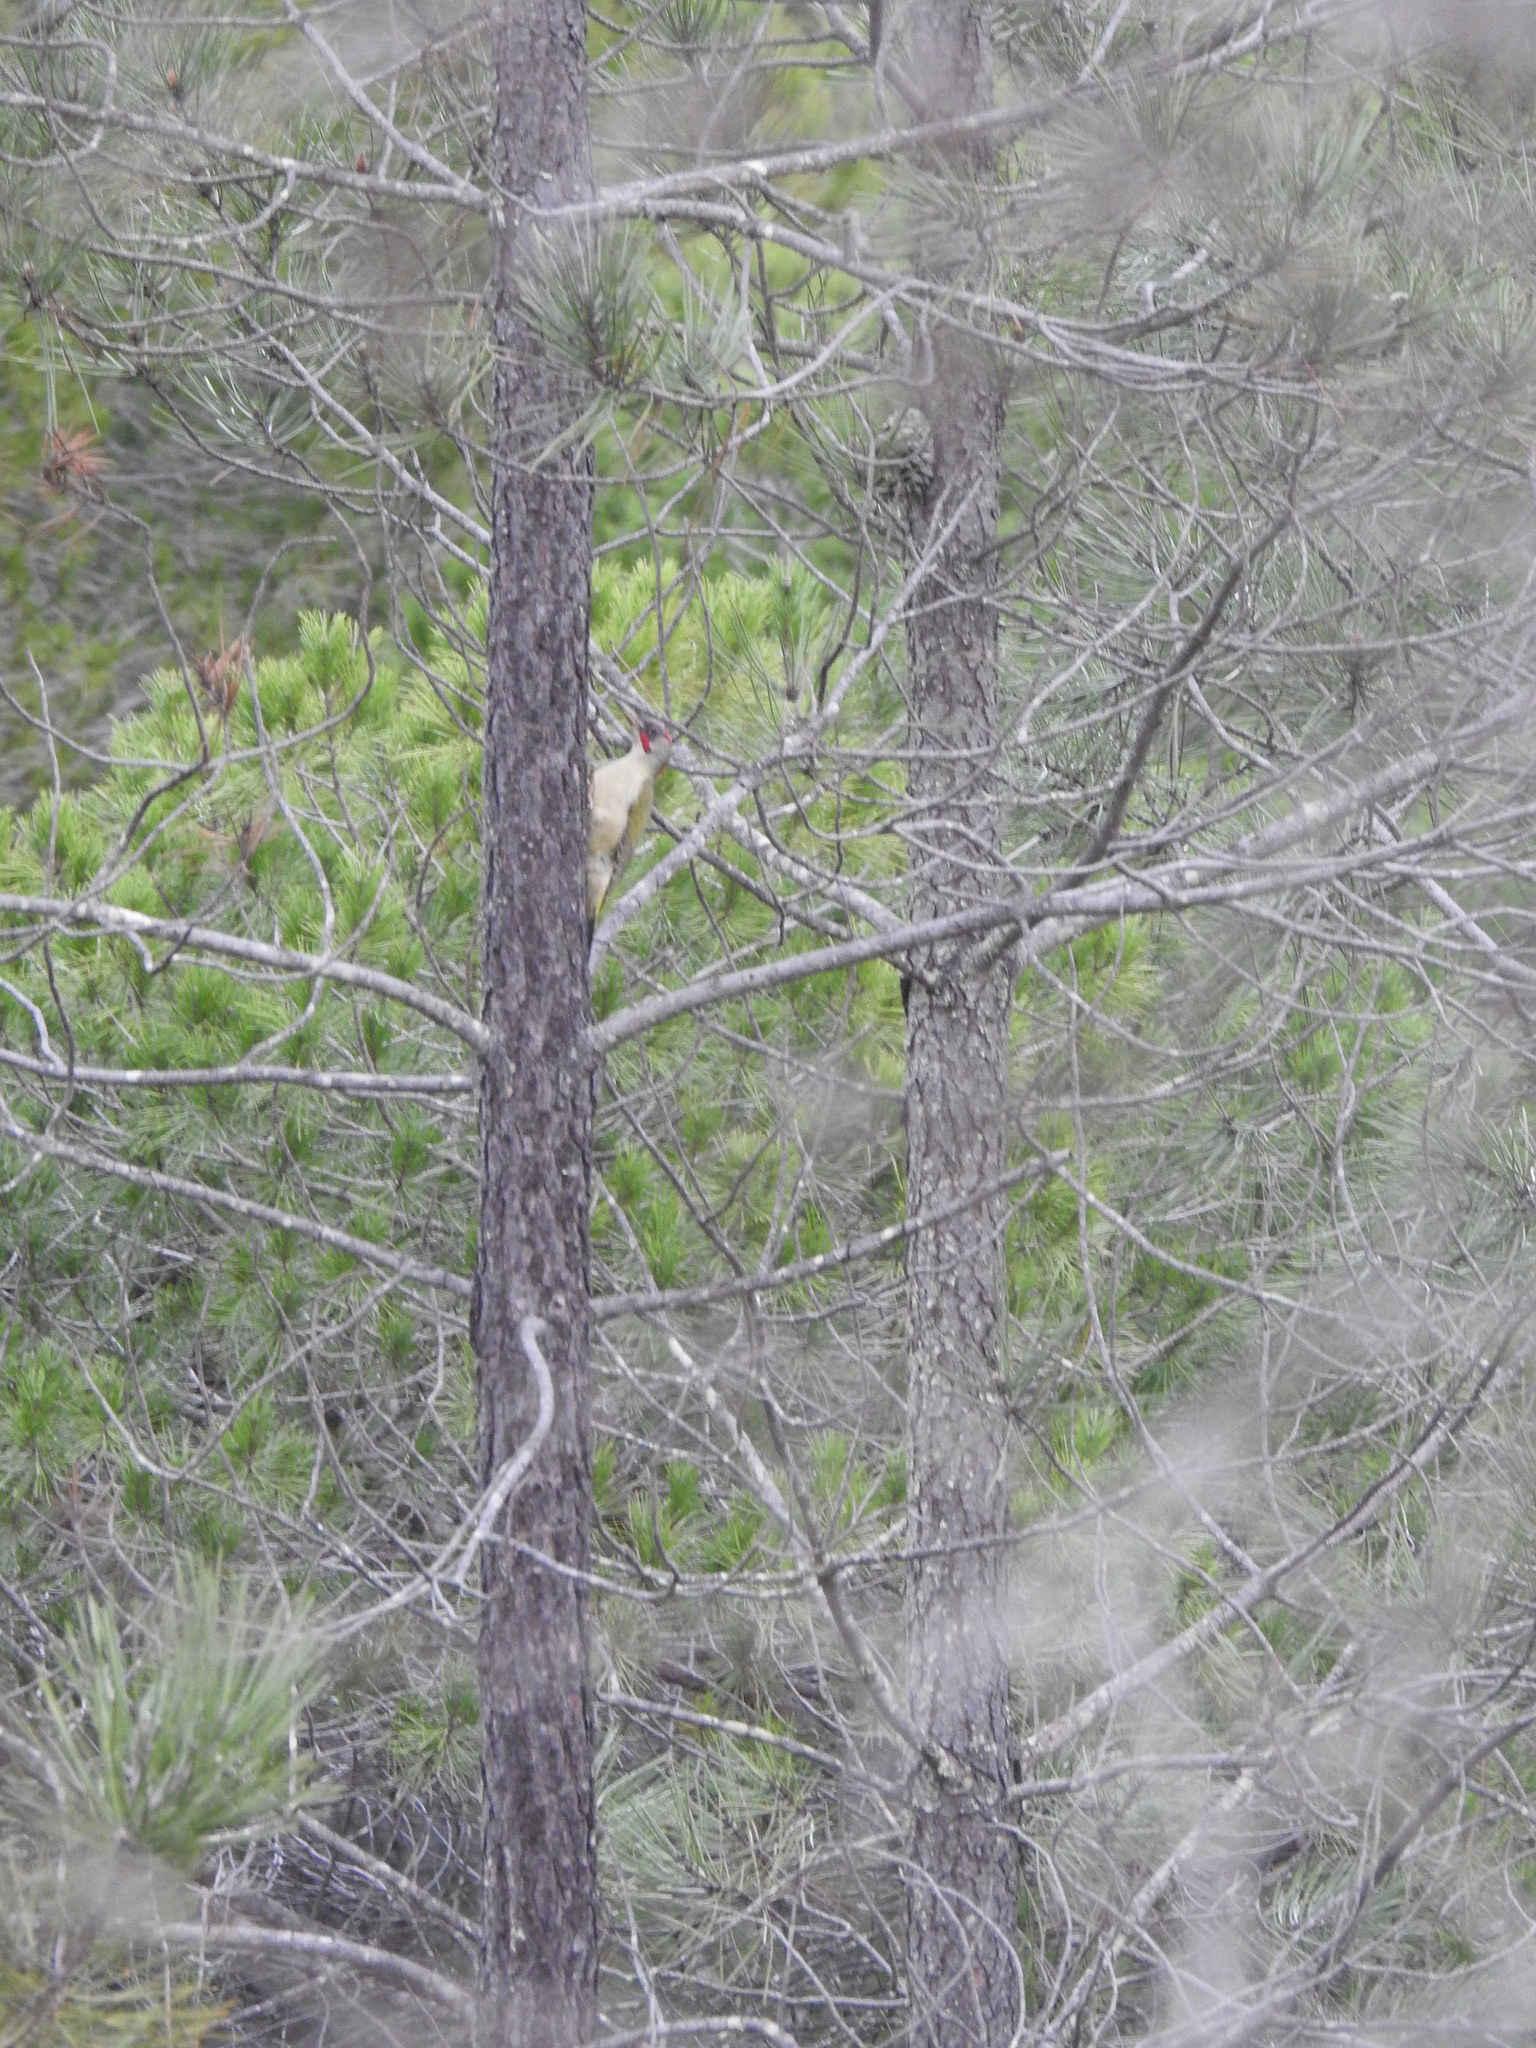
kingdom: Animalia
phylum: Chordata
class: Aves
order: Piciformes
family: Picidae
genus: Picus
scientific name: Picus sharpei
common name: Iberian green woodpecker
